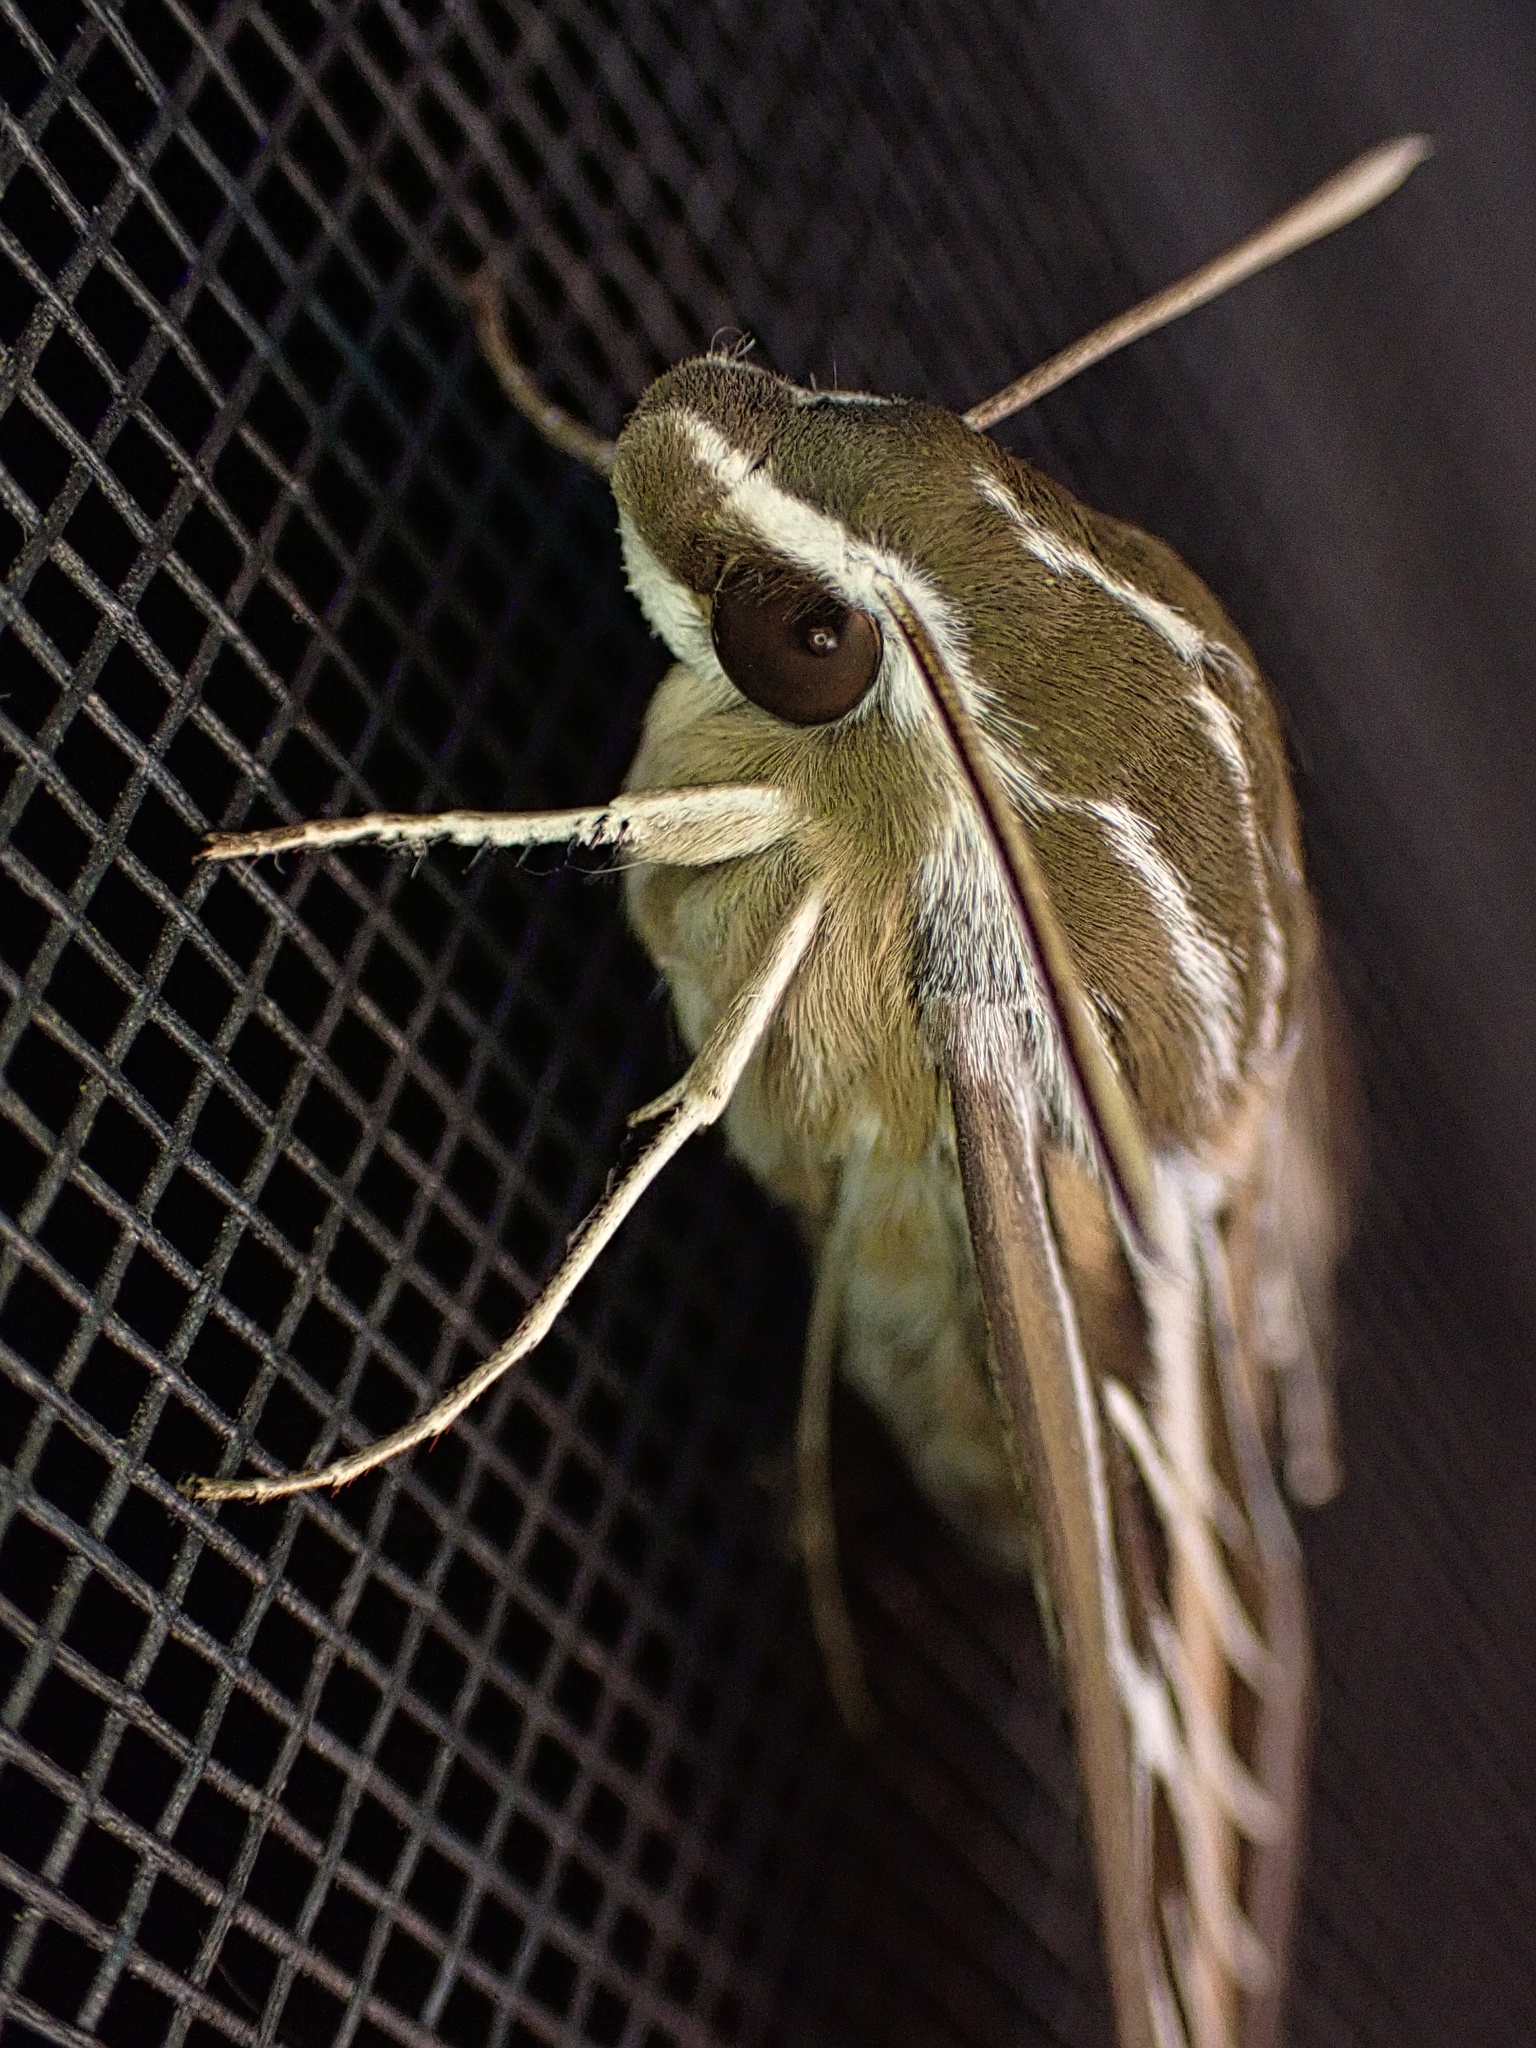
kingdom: Animalia
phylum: Arthropoda
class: Insecta
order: Lepidoptera
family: Sphingidae
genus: Hyles
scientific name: Hyles lineata
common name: White-lined sphinx
